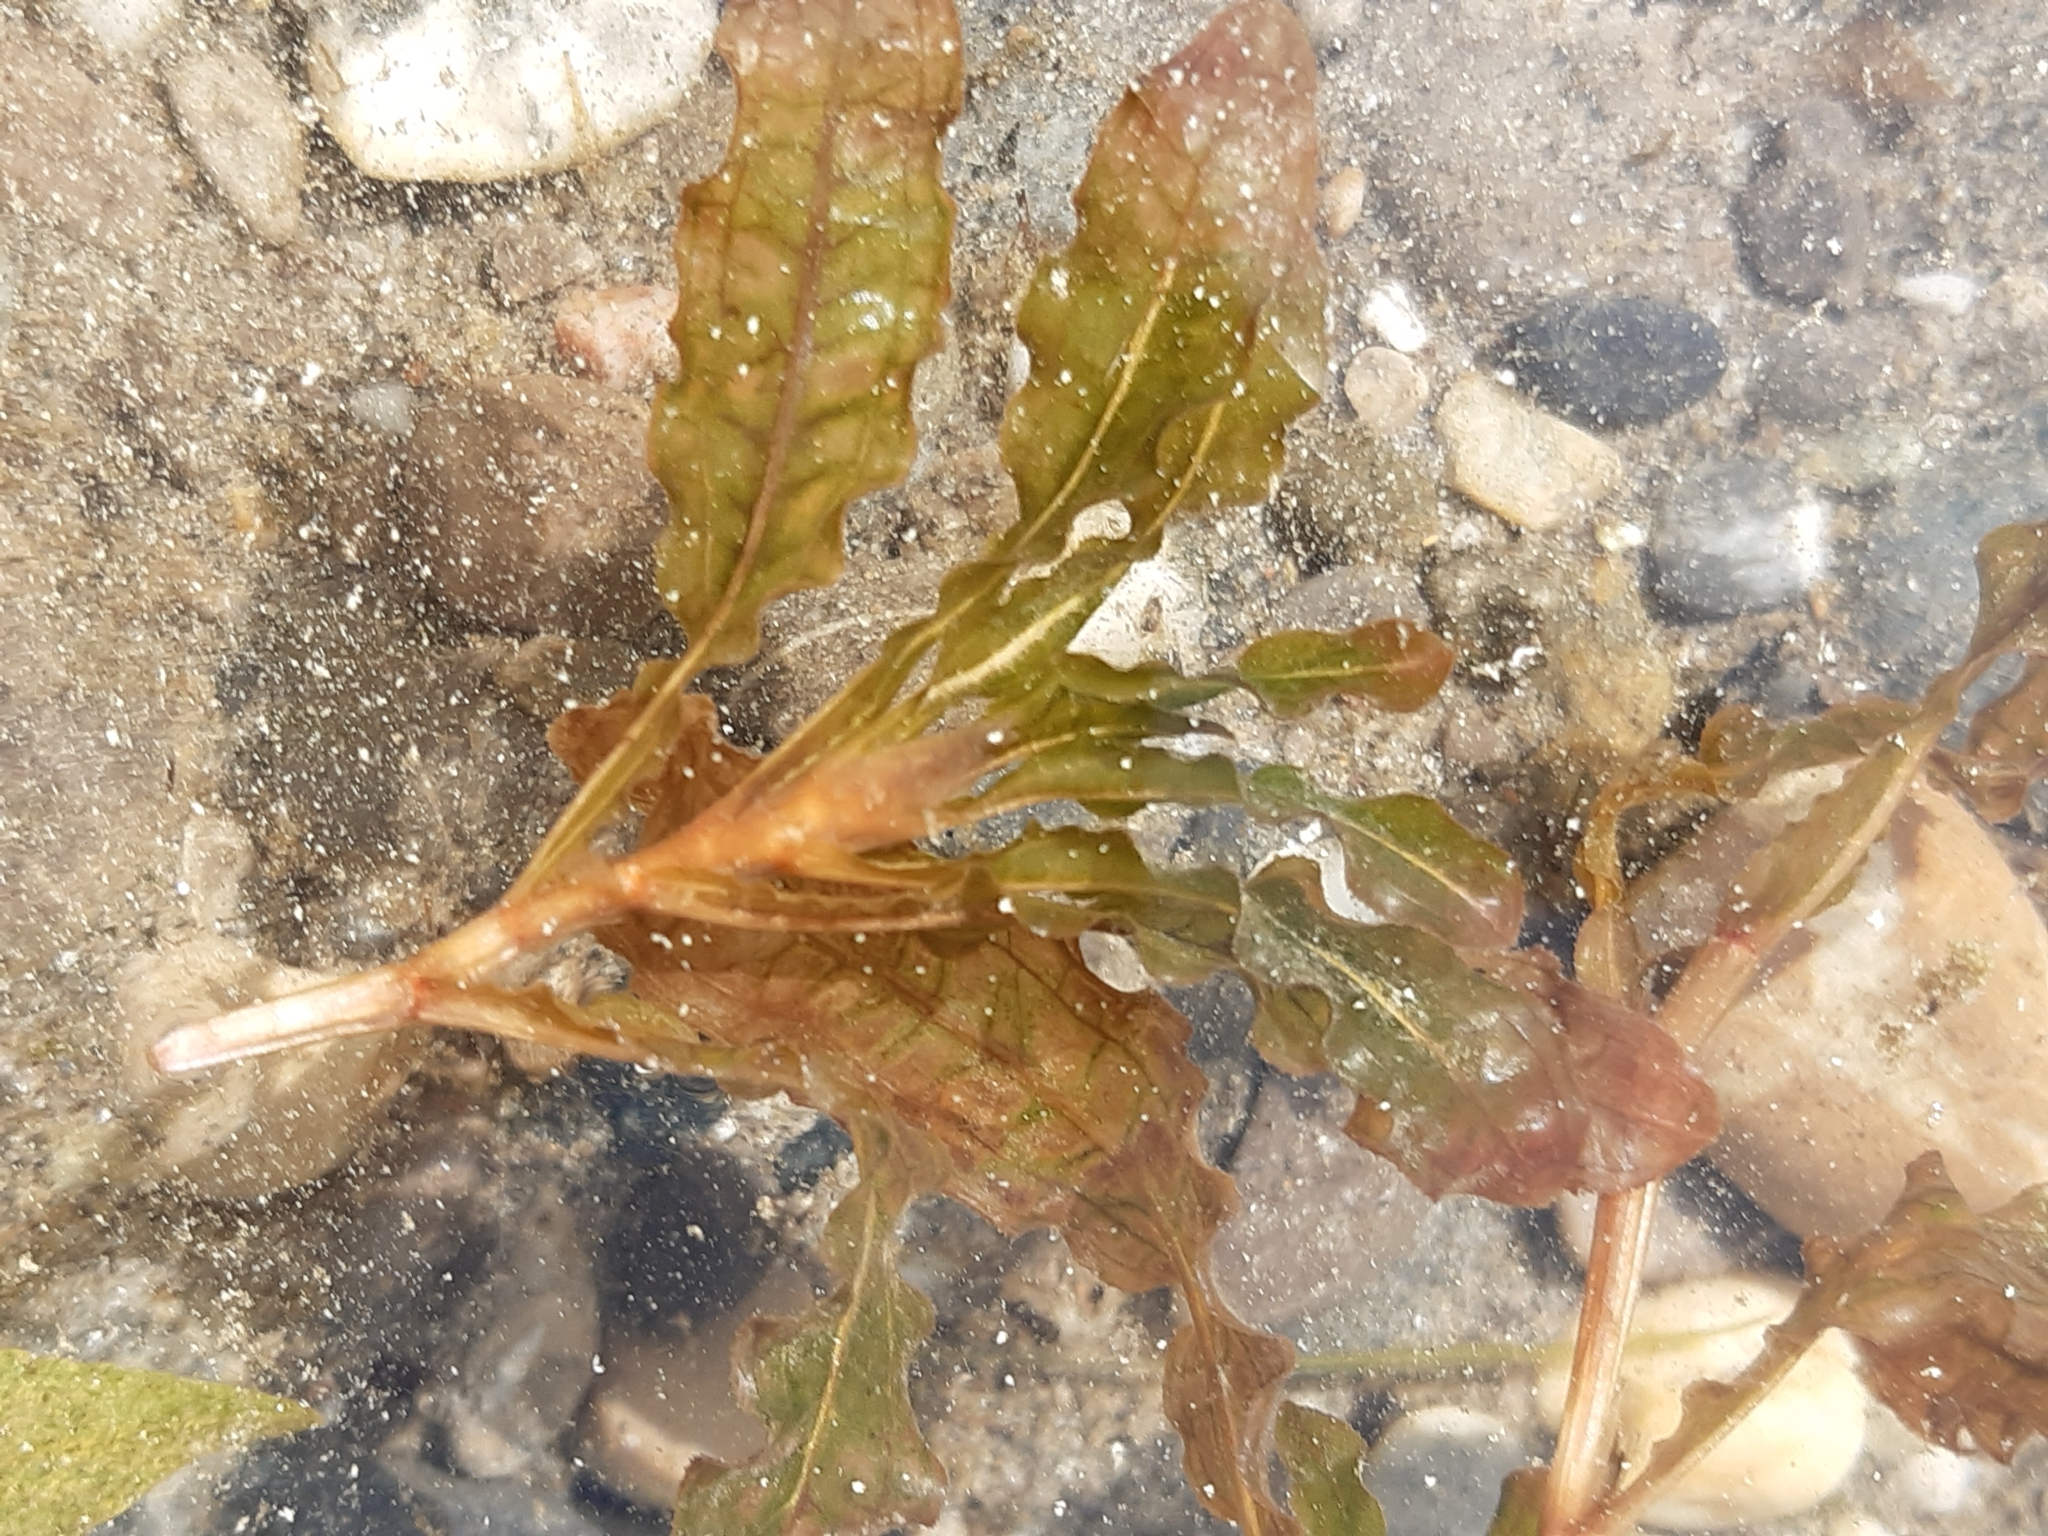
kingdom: Plantae
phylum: Tracheophyta
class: Liliopsida
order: Alismatales
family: Potamogetonaceae
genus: Potamogeton
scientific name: Potamogeton crispus
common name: Curled pondweed
